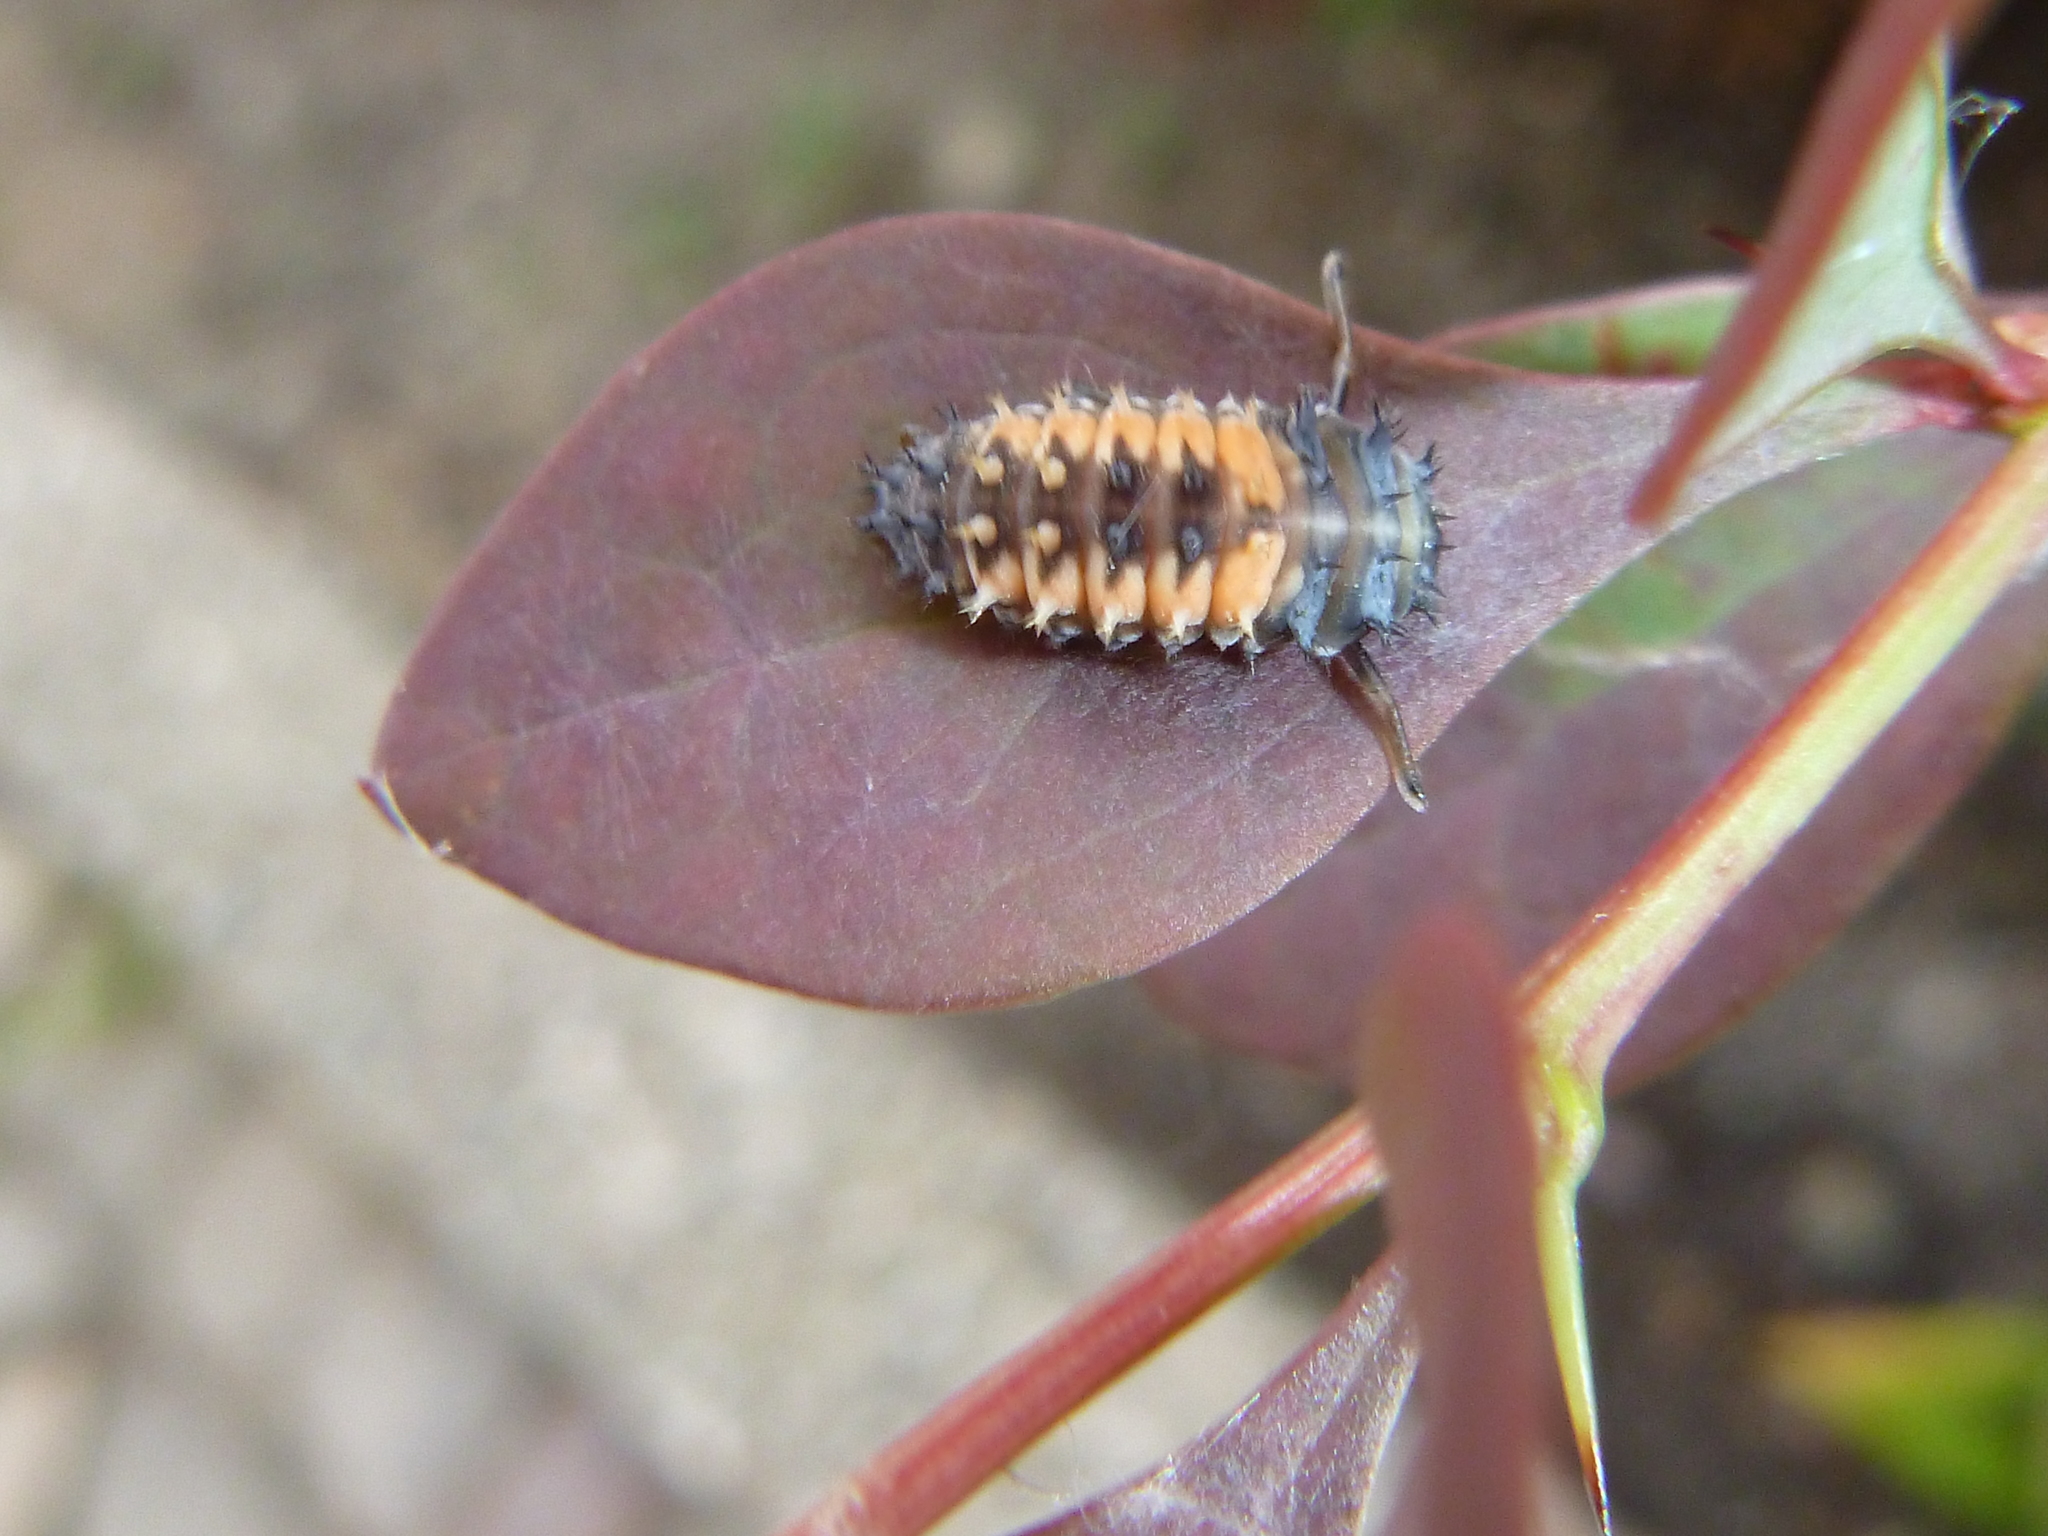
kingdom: Animalia
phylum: Arthropoda
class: Insecta
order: Coleoptera
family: Coccinellidae
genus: Harmonia
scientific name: Harmonia axyridis
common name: Harlequin ladybird
